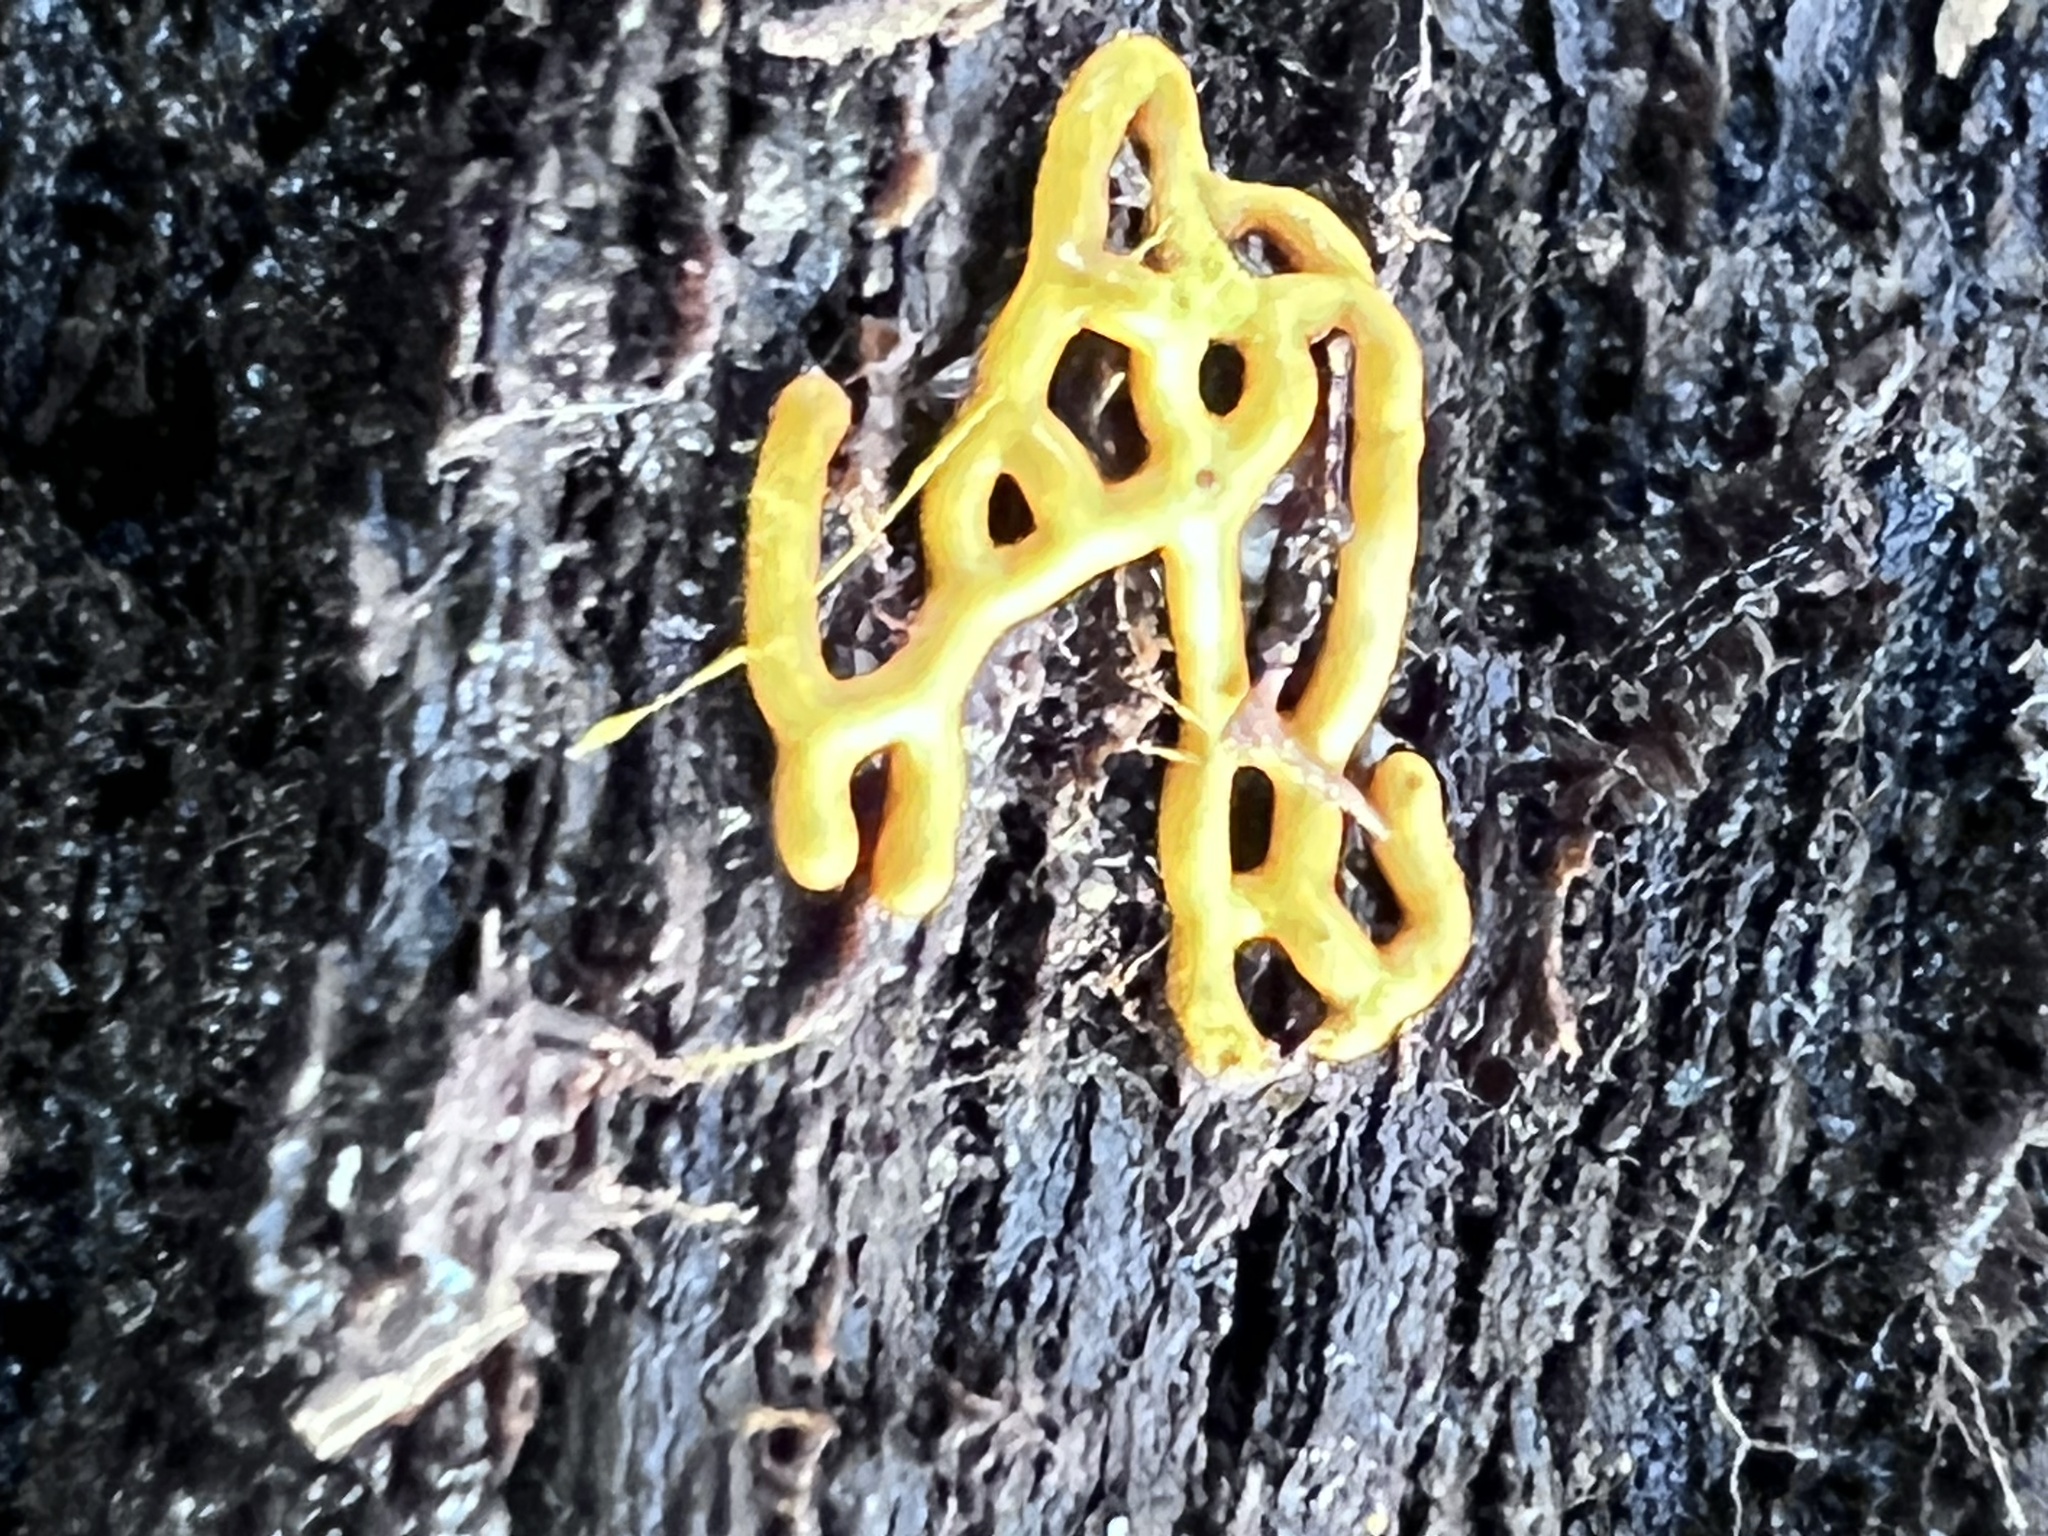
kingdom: Protozoa
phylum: Mycetozoa
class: Myxomycetes
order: Trichiales
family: Arcyriaceae
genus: Hemitrichia
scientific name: Hemitrichia serpula
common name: Pretzel slime mold
